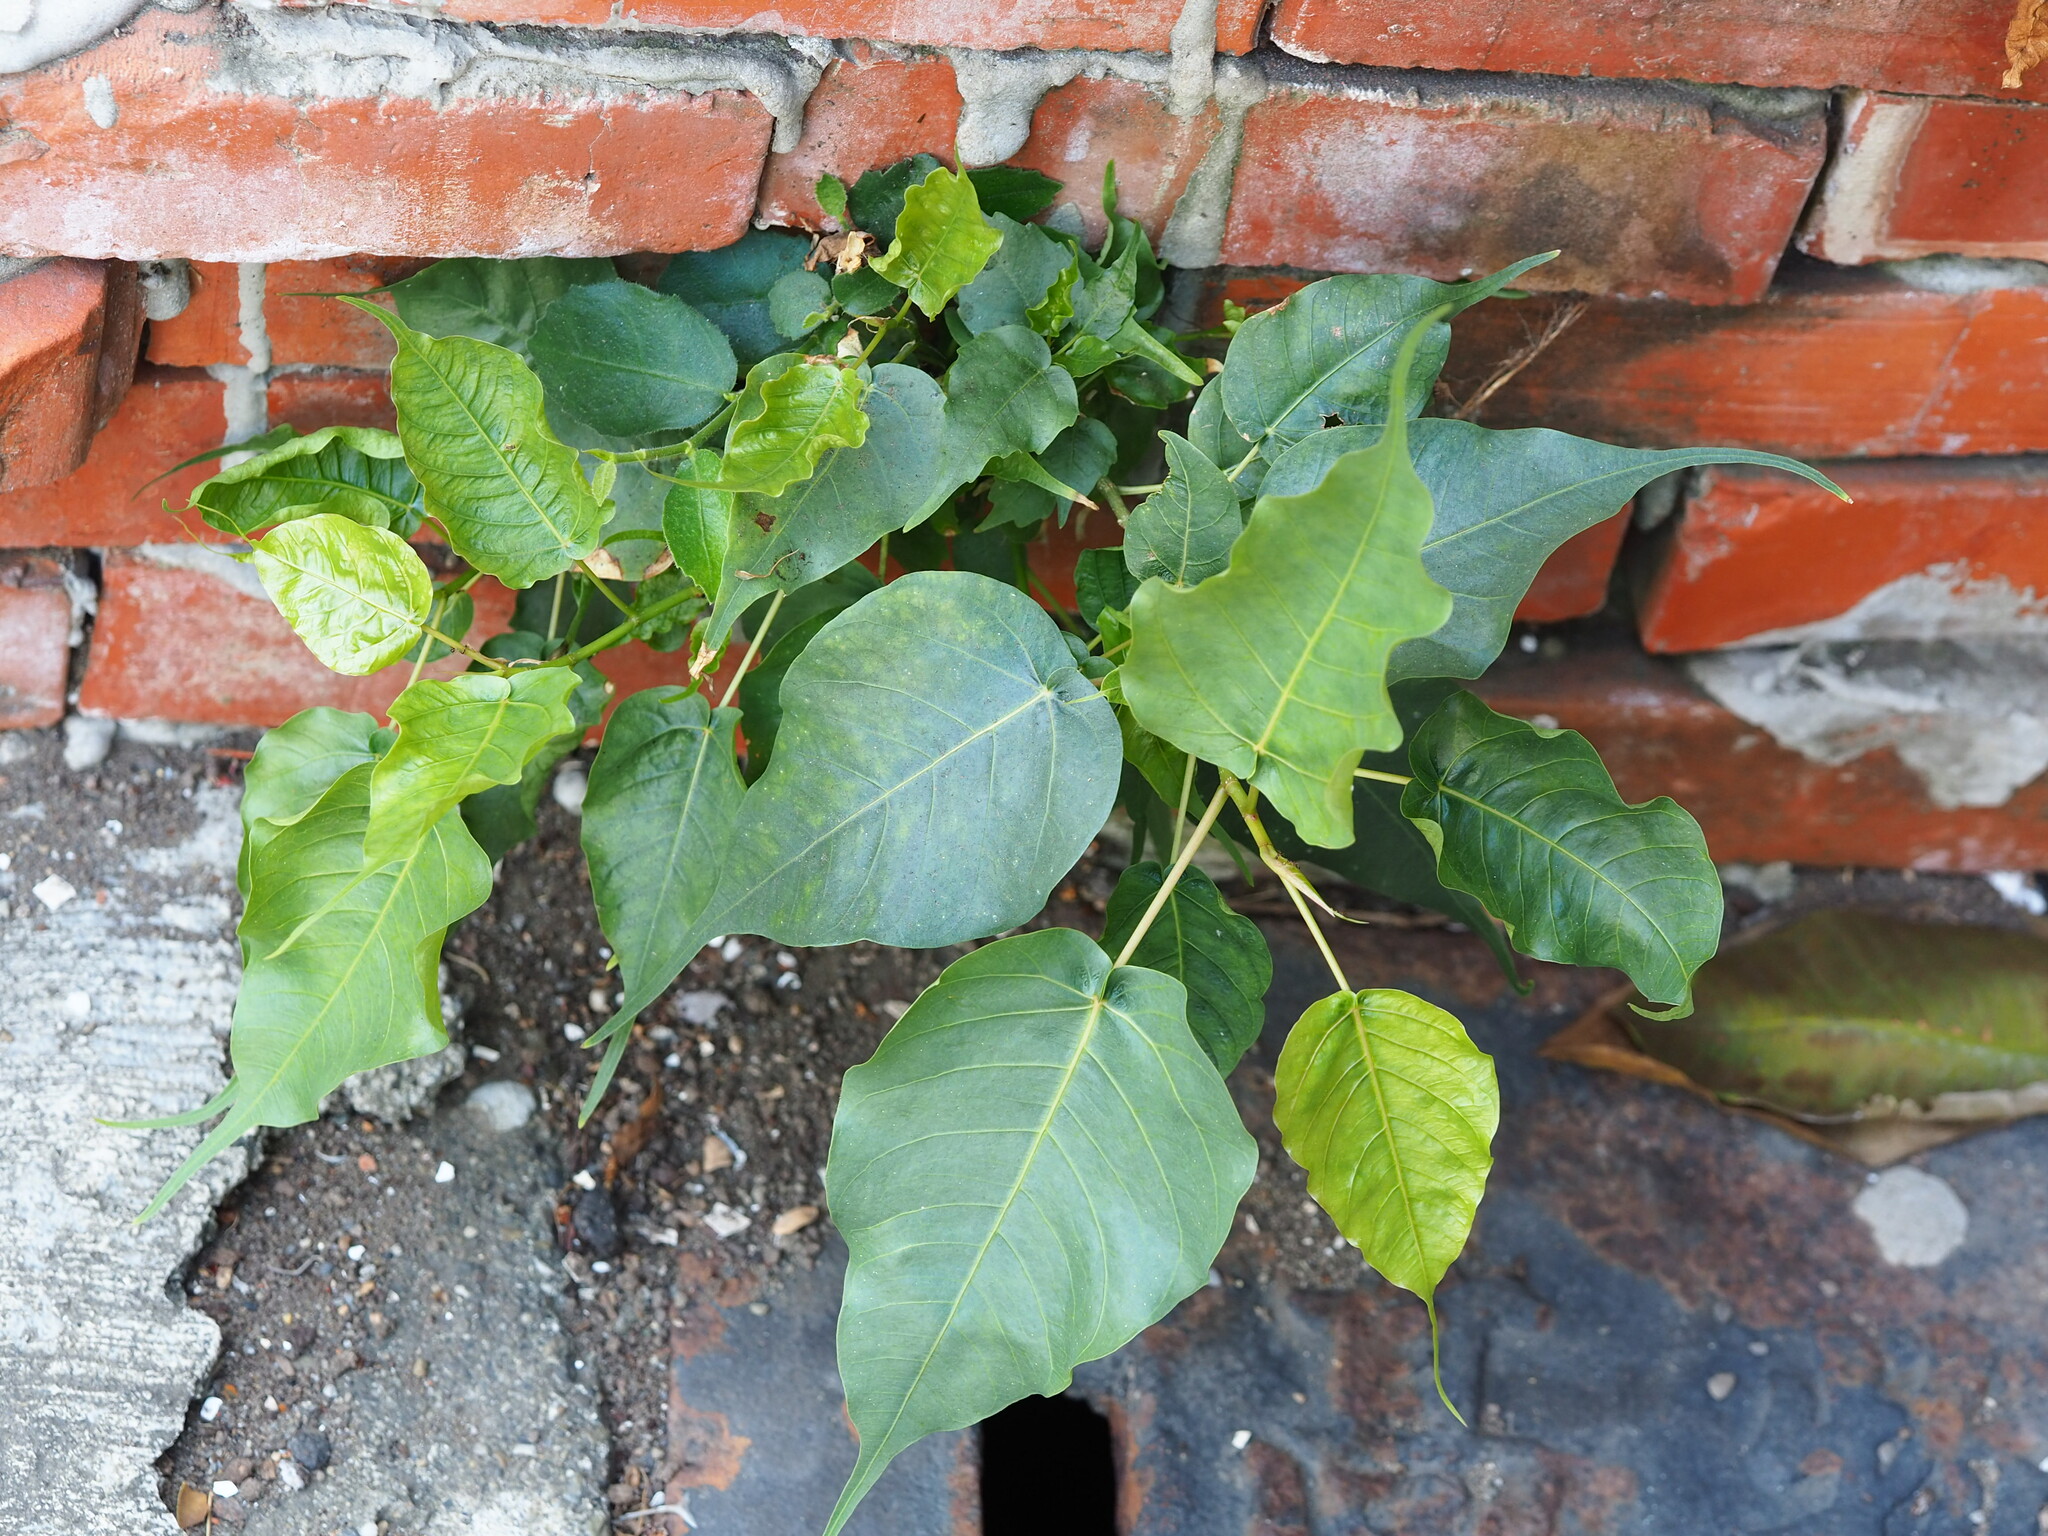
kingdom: Plantae
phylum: Tracheophyta
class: Magnoliopsida
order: Rosales
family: Moraceae
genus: Ficus
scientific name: Ficus religiosa
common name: Bodhi tree
